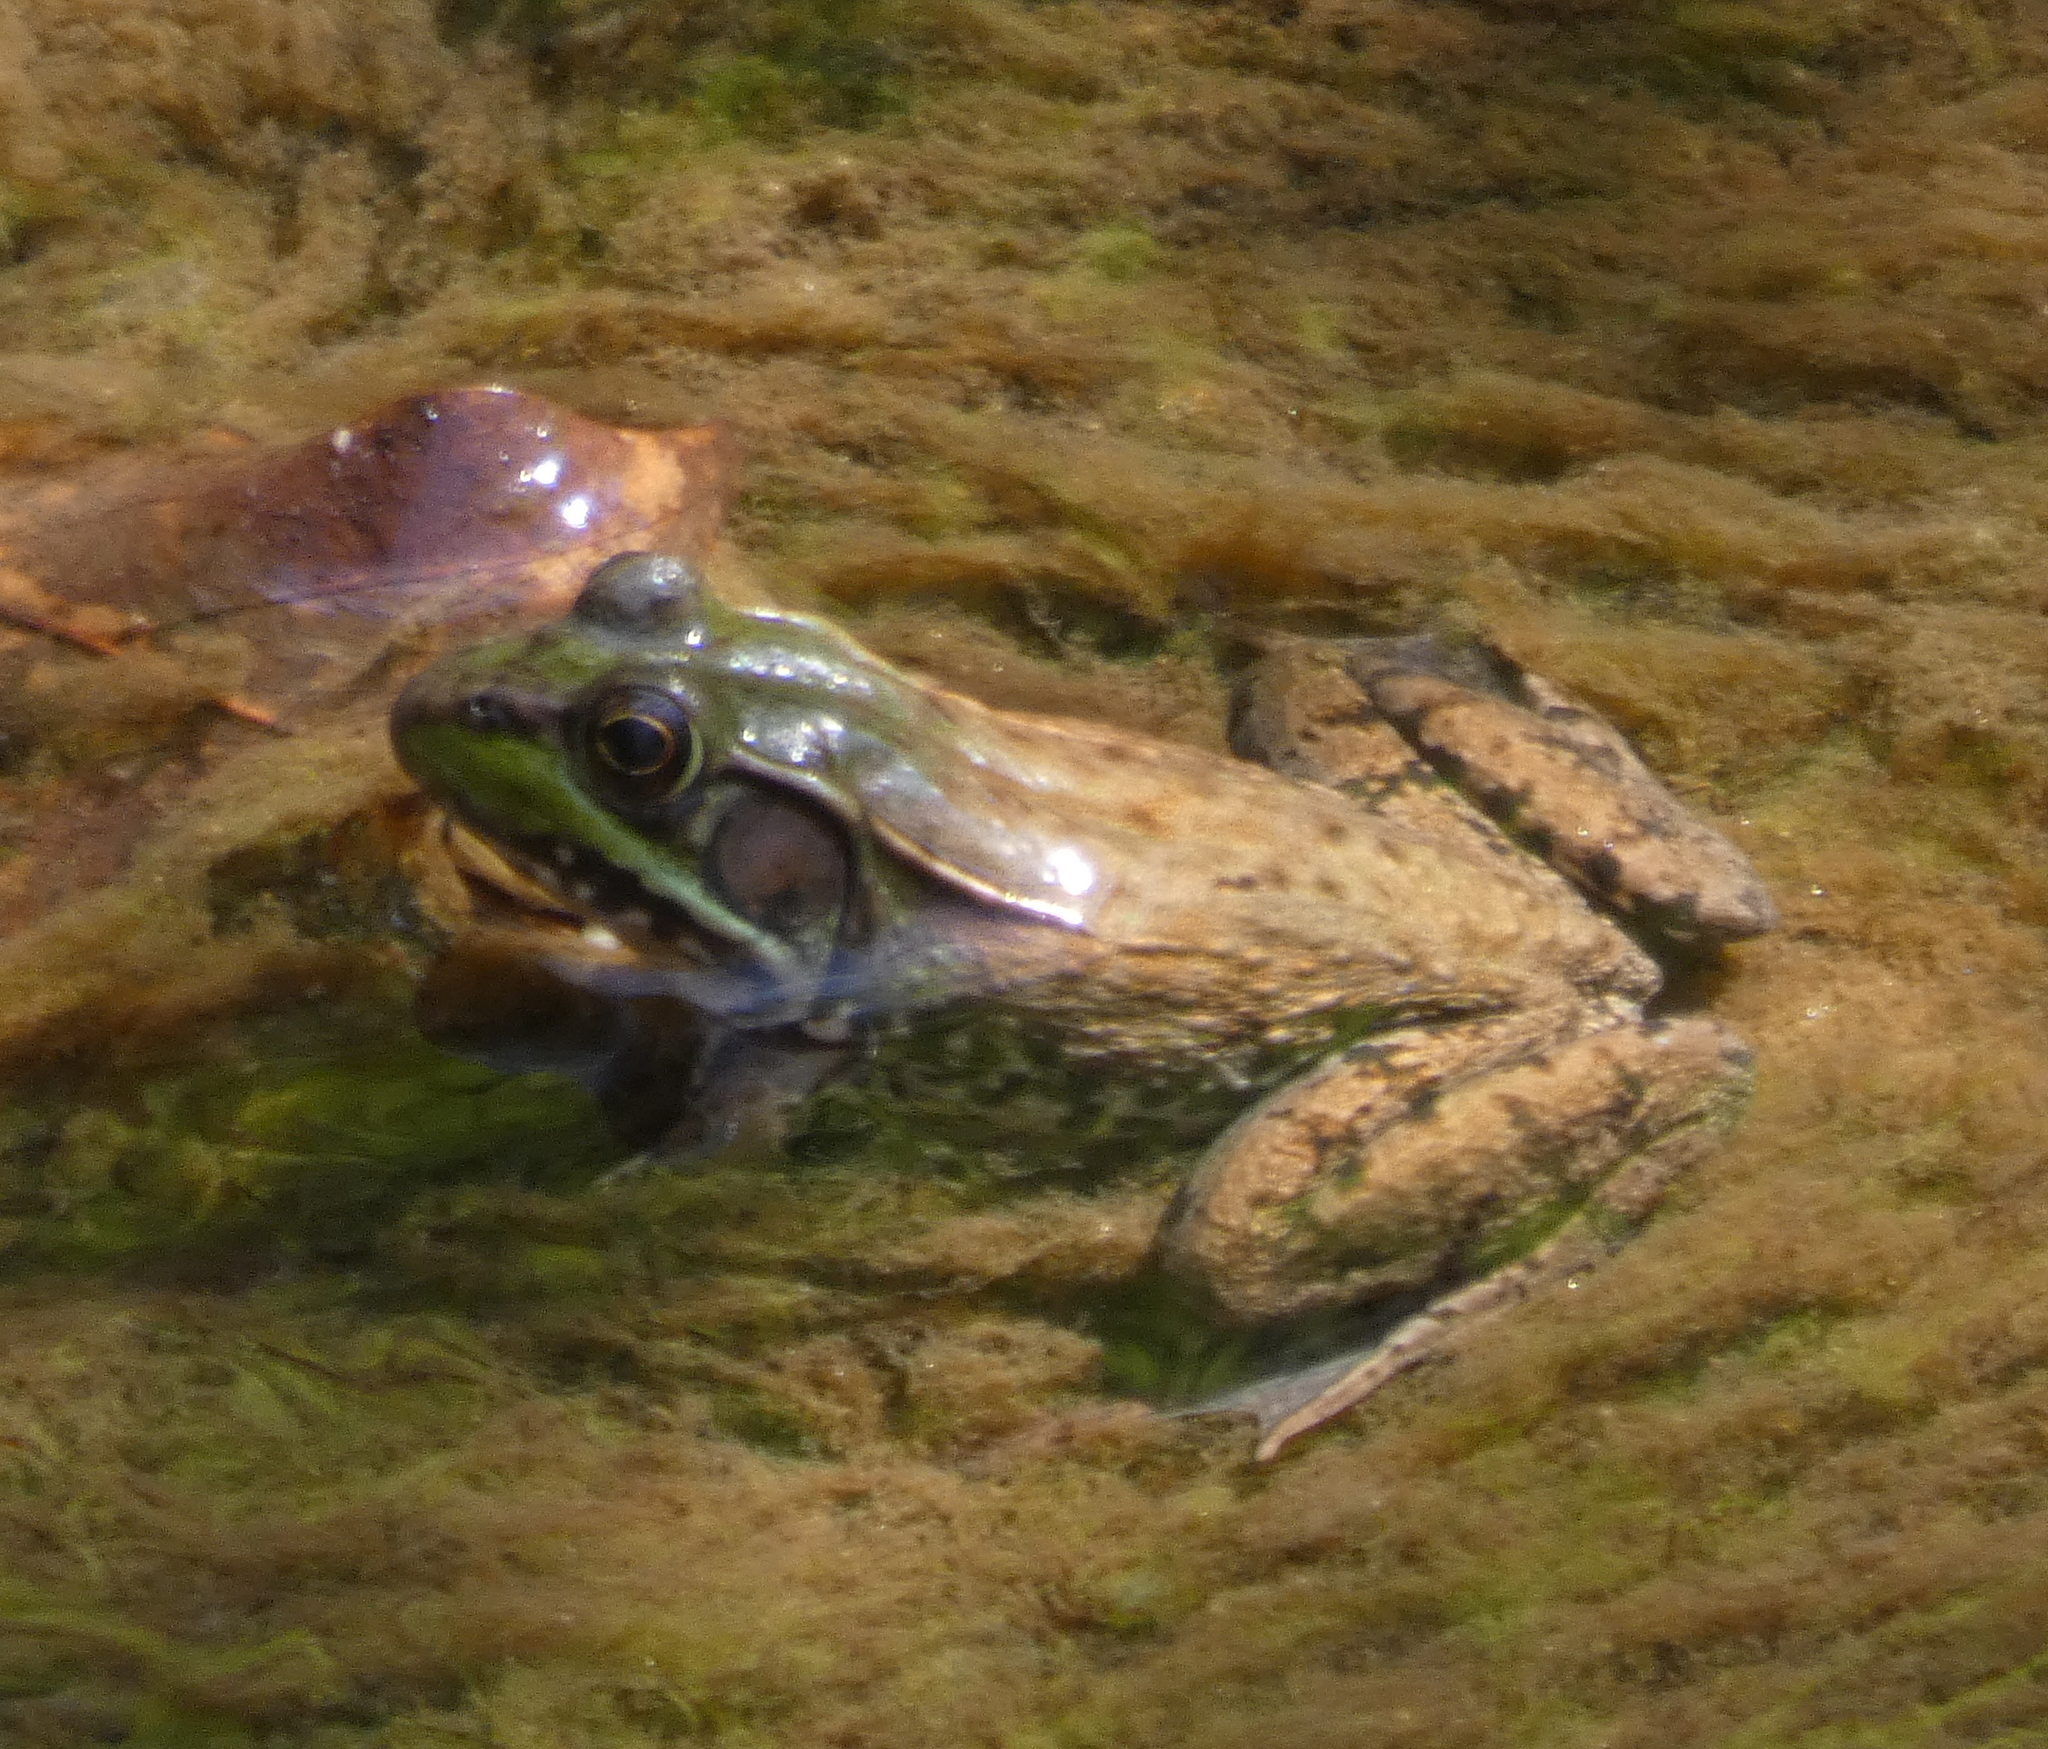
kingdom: Animalia
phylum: Chordata
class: Amphibia
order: Anura
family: Ranidae
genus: Lithobates
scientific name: Lithobates clamitans
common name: Green frog
